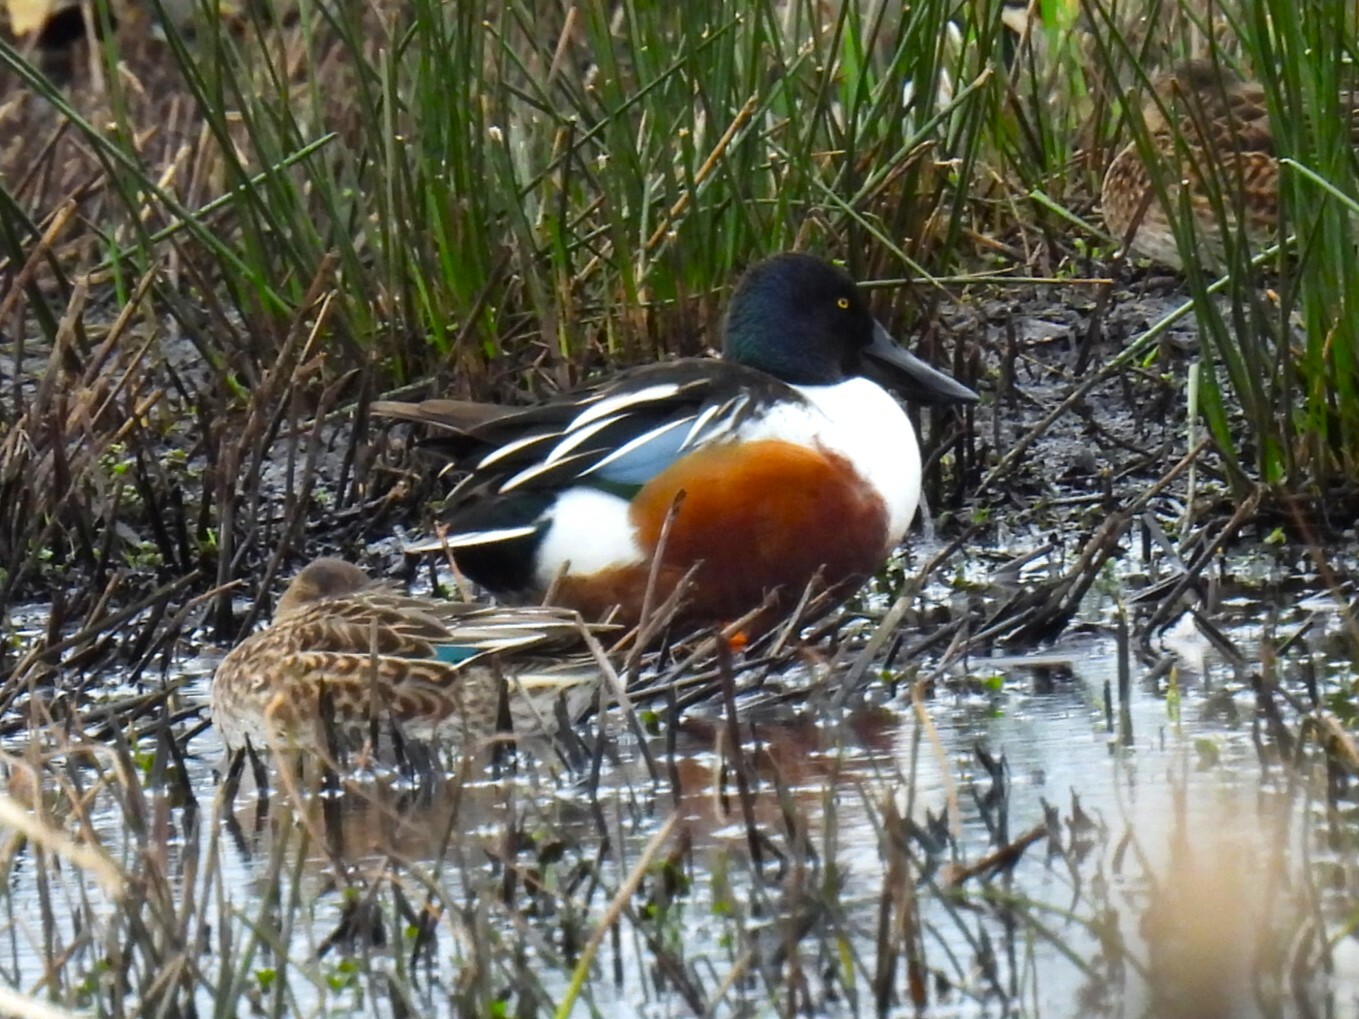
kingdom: Animalia
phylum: Chordata
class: Aves
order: Anseriformes
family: Anatidae
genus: Spatula
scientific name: Spatula clypeata
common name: Northern shoveler
